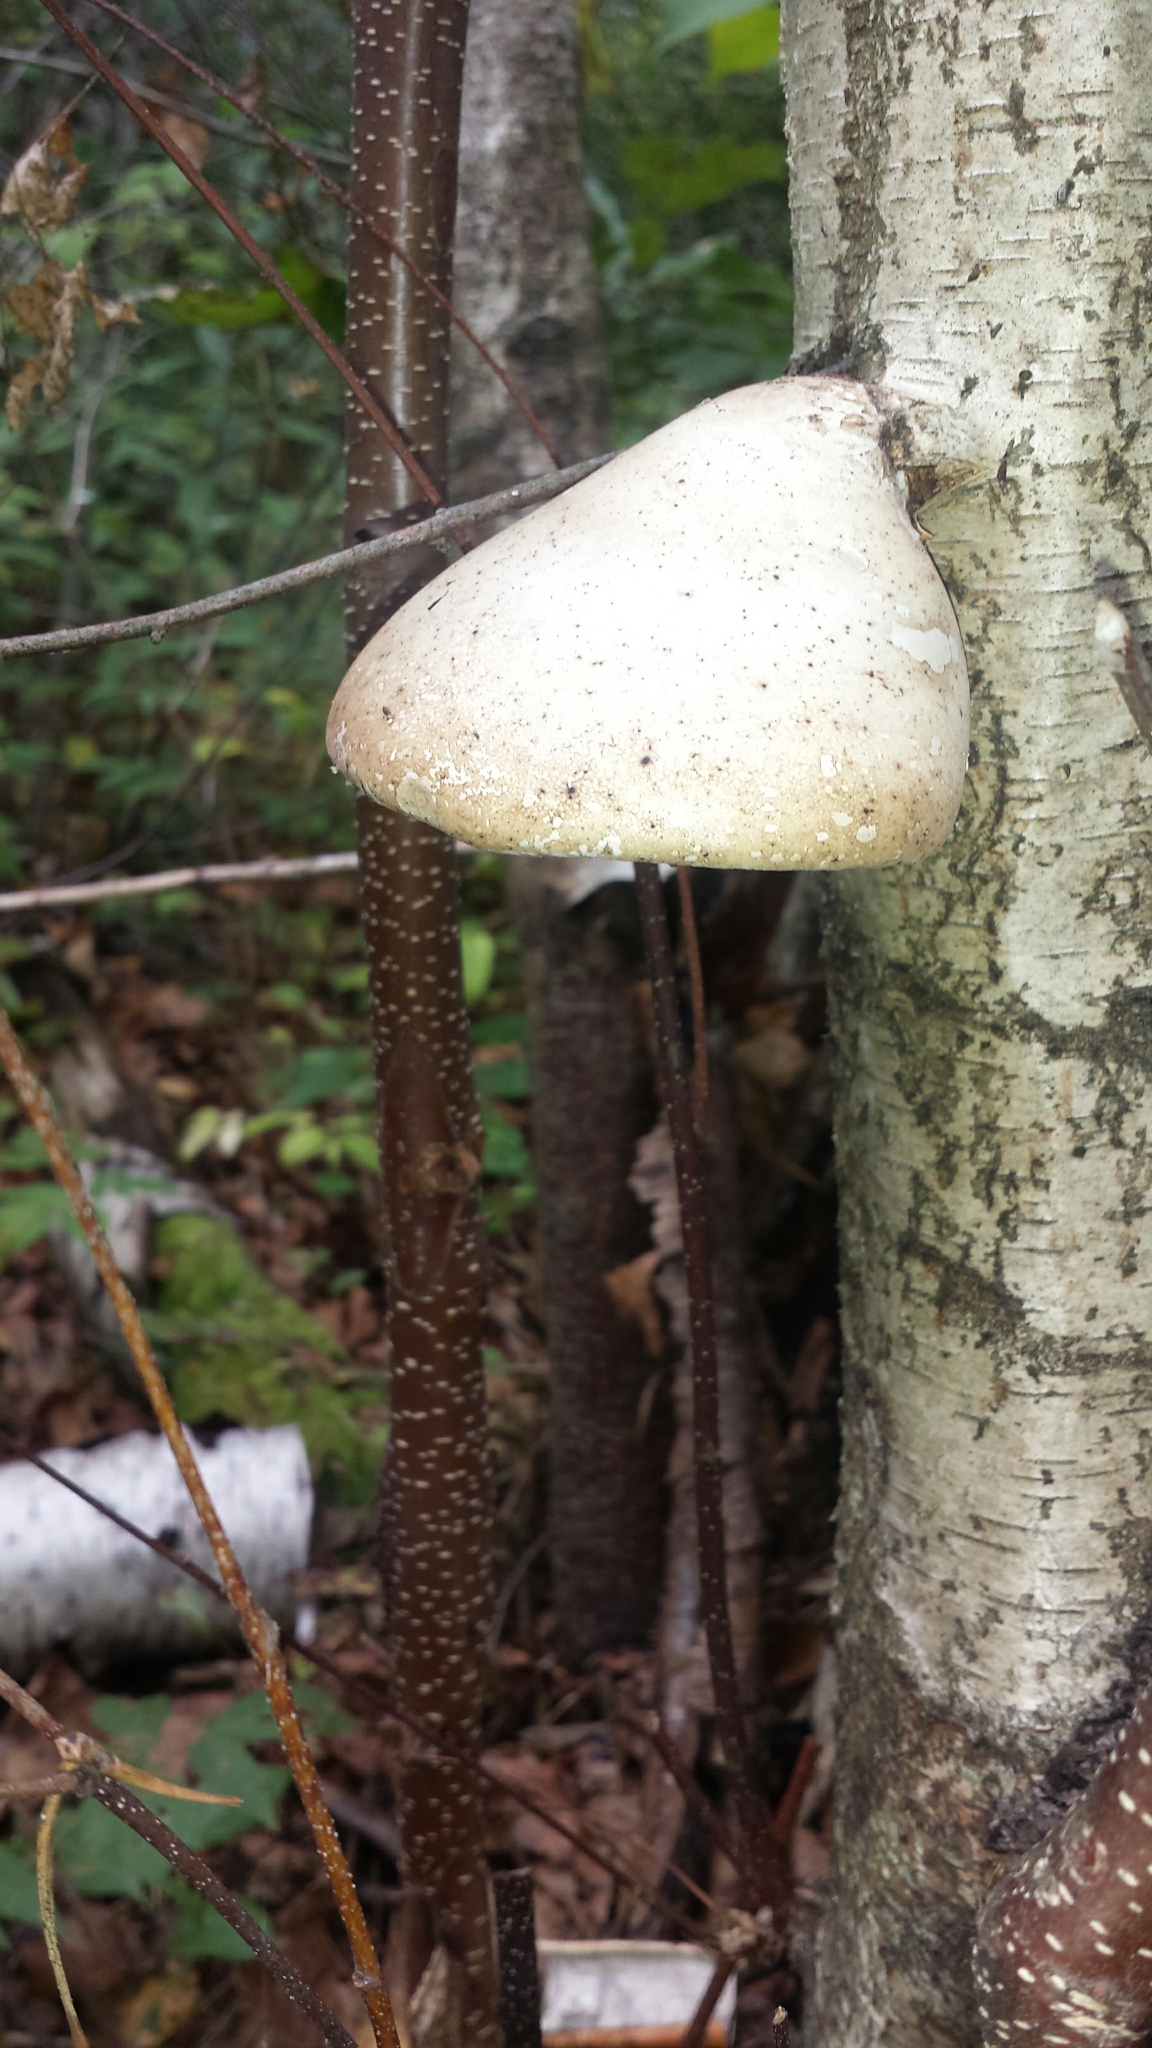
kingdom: Fungi
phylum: Basidiomycota
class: Agaricomycetes
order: Polyporales
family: Fomitopsidaceae
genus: Fomitopsis
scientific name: Fomitopsis betulina
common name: Birch polypore
